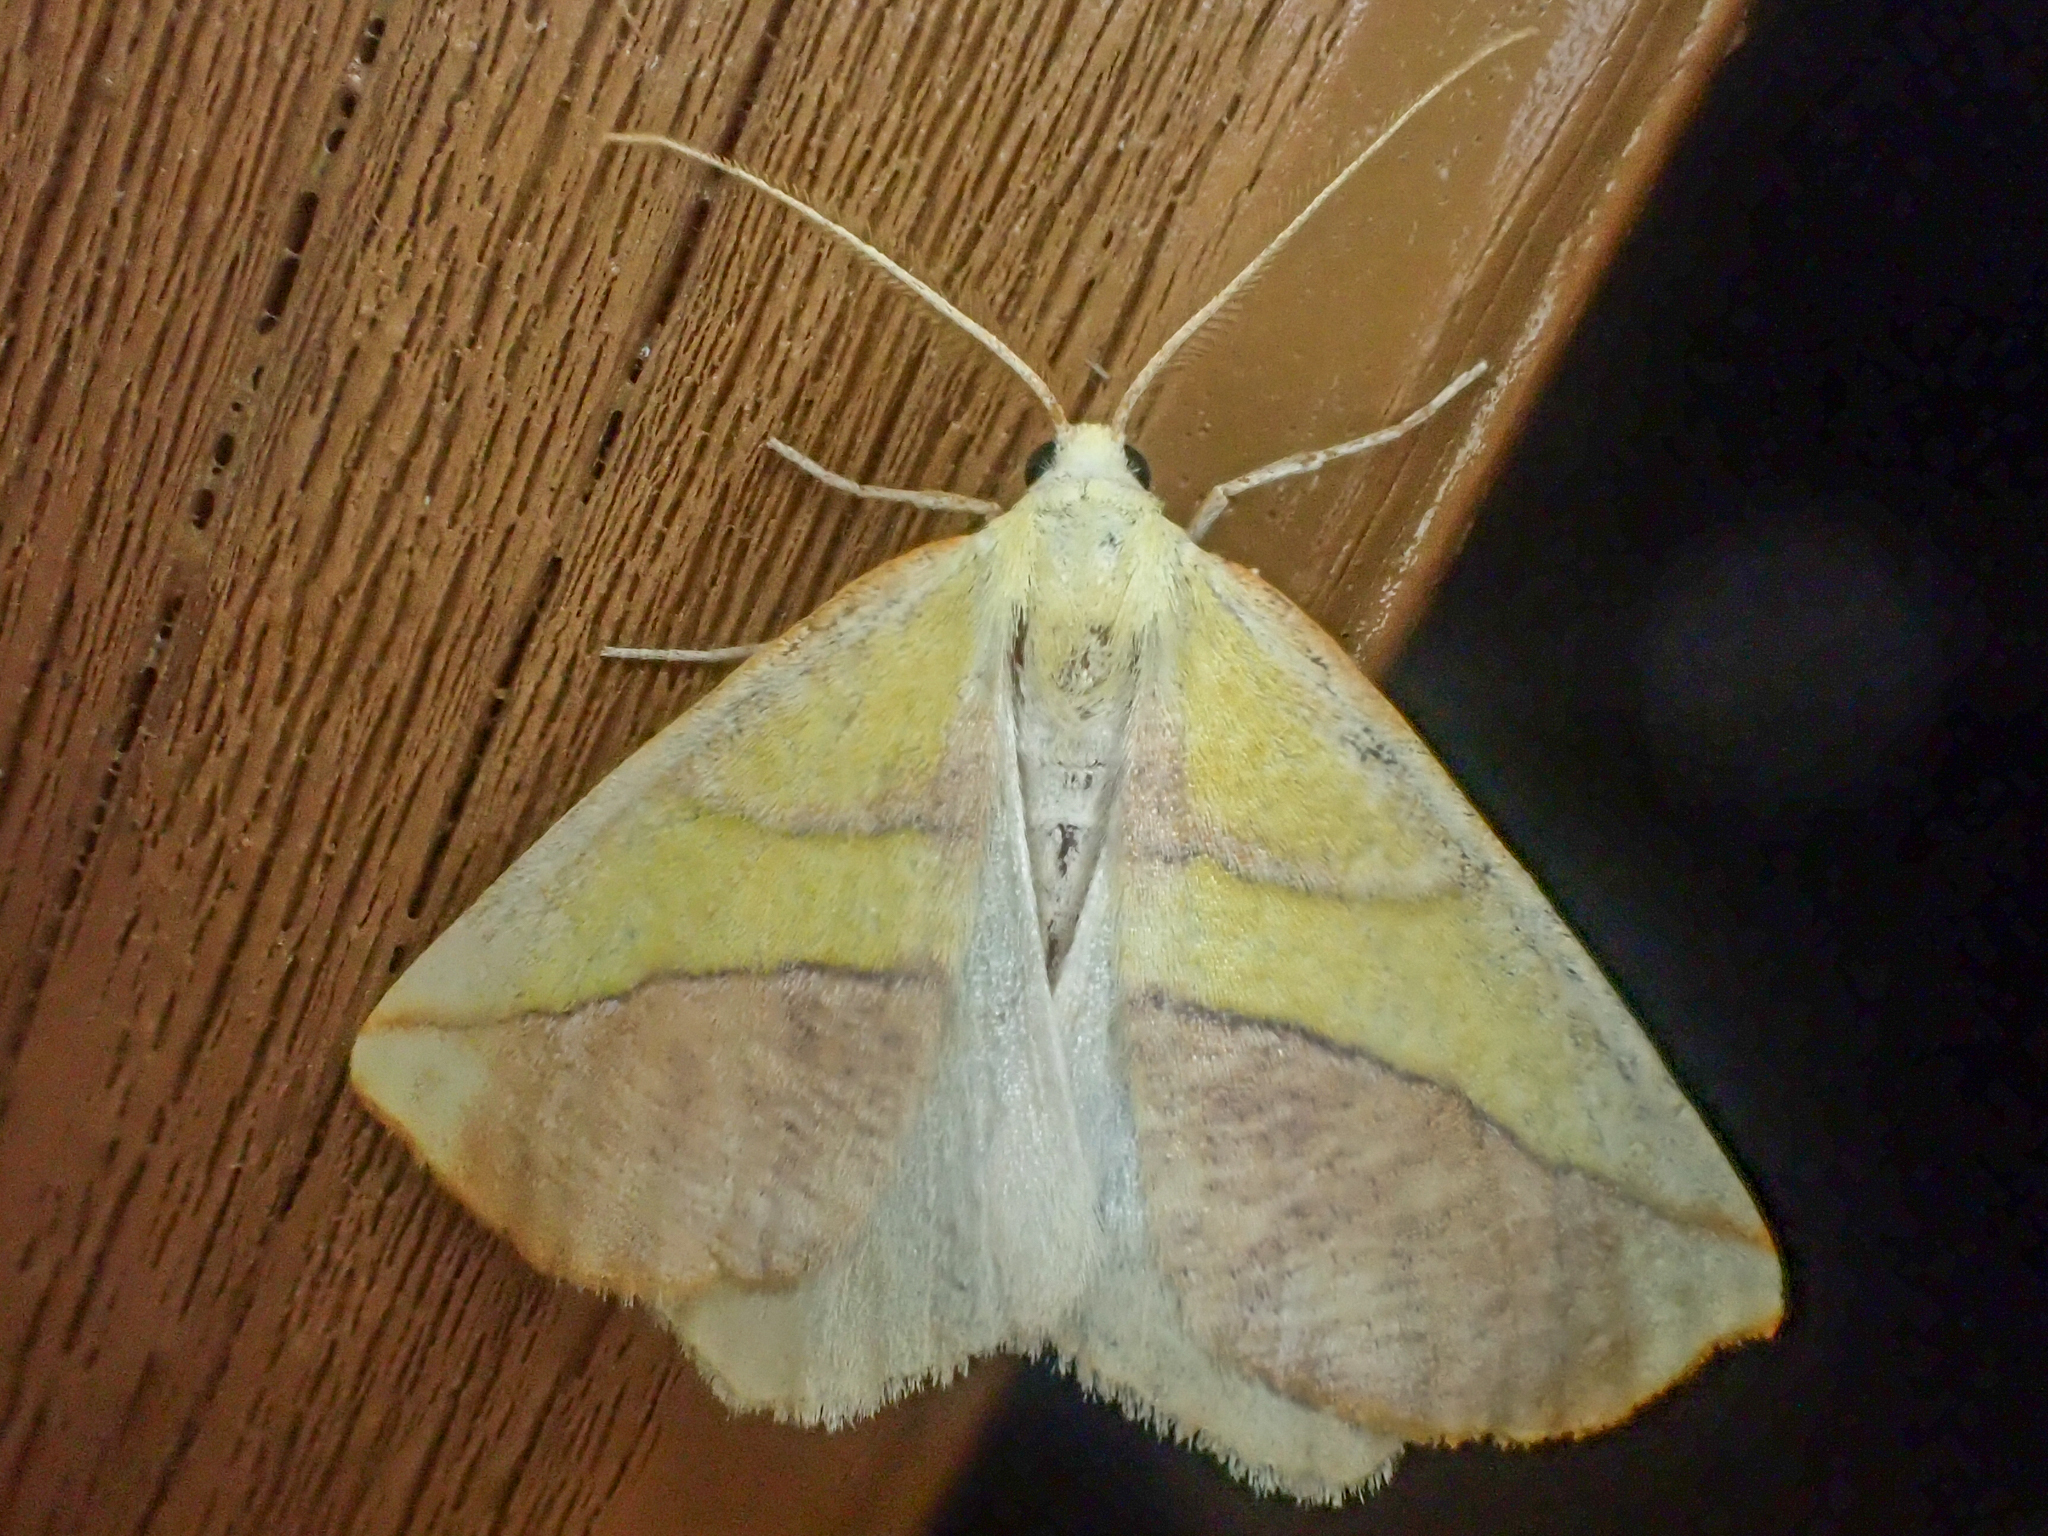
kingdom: Animalia
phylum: Arthropoda
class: Insecta
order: Lepidoptera
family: Geometridae
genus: Sicya
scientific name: Sicya macularia
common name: Sharp-lined yellow
